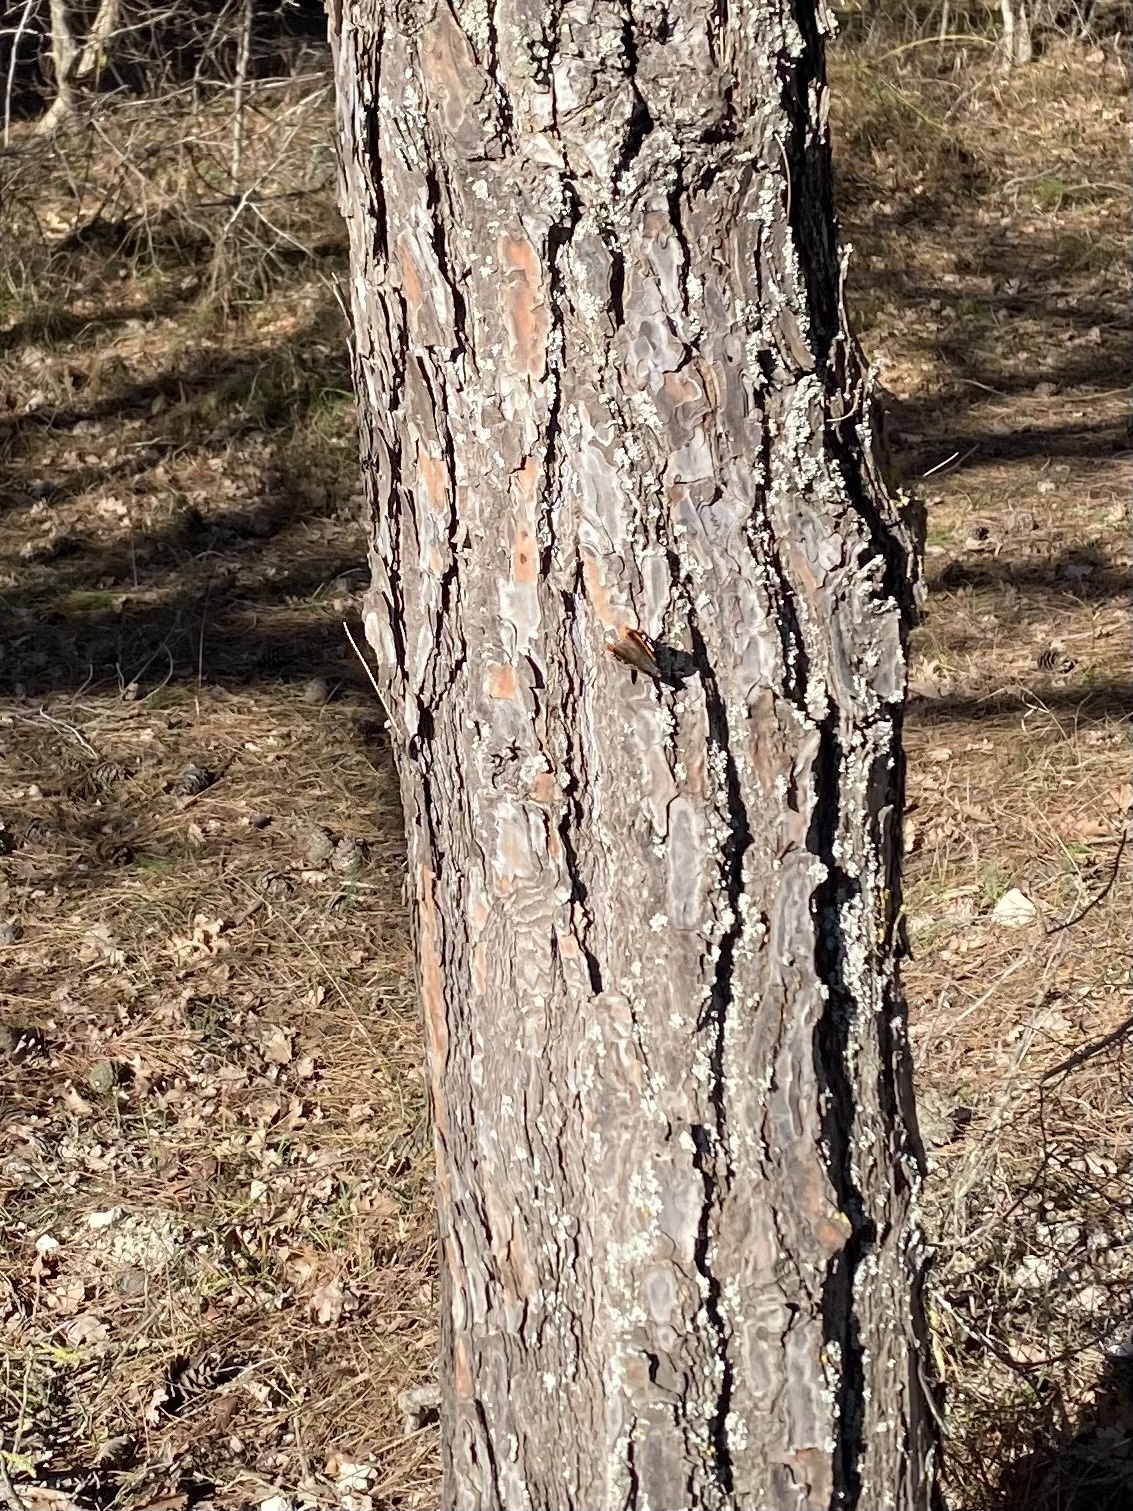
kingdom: Animalia
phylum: Arthropoda
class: Insecta
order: Lepidoptera
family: Nymphalidae
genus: Vanessa
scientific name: Vanessa atalanta
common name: Red admiral
